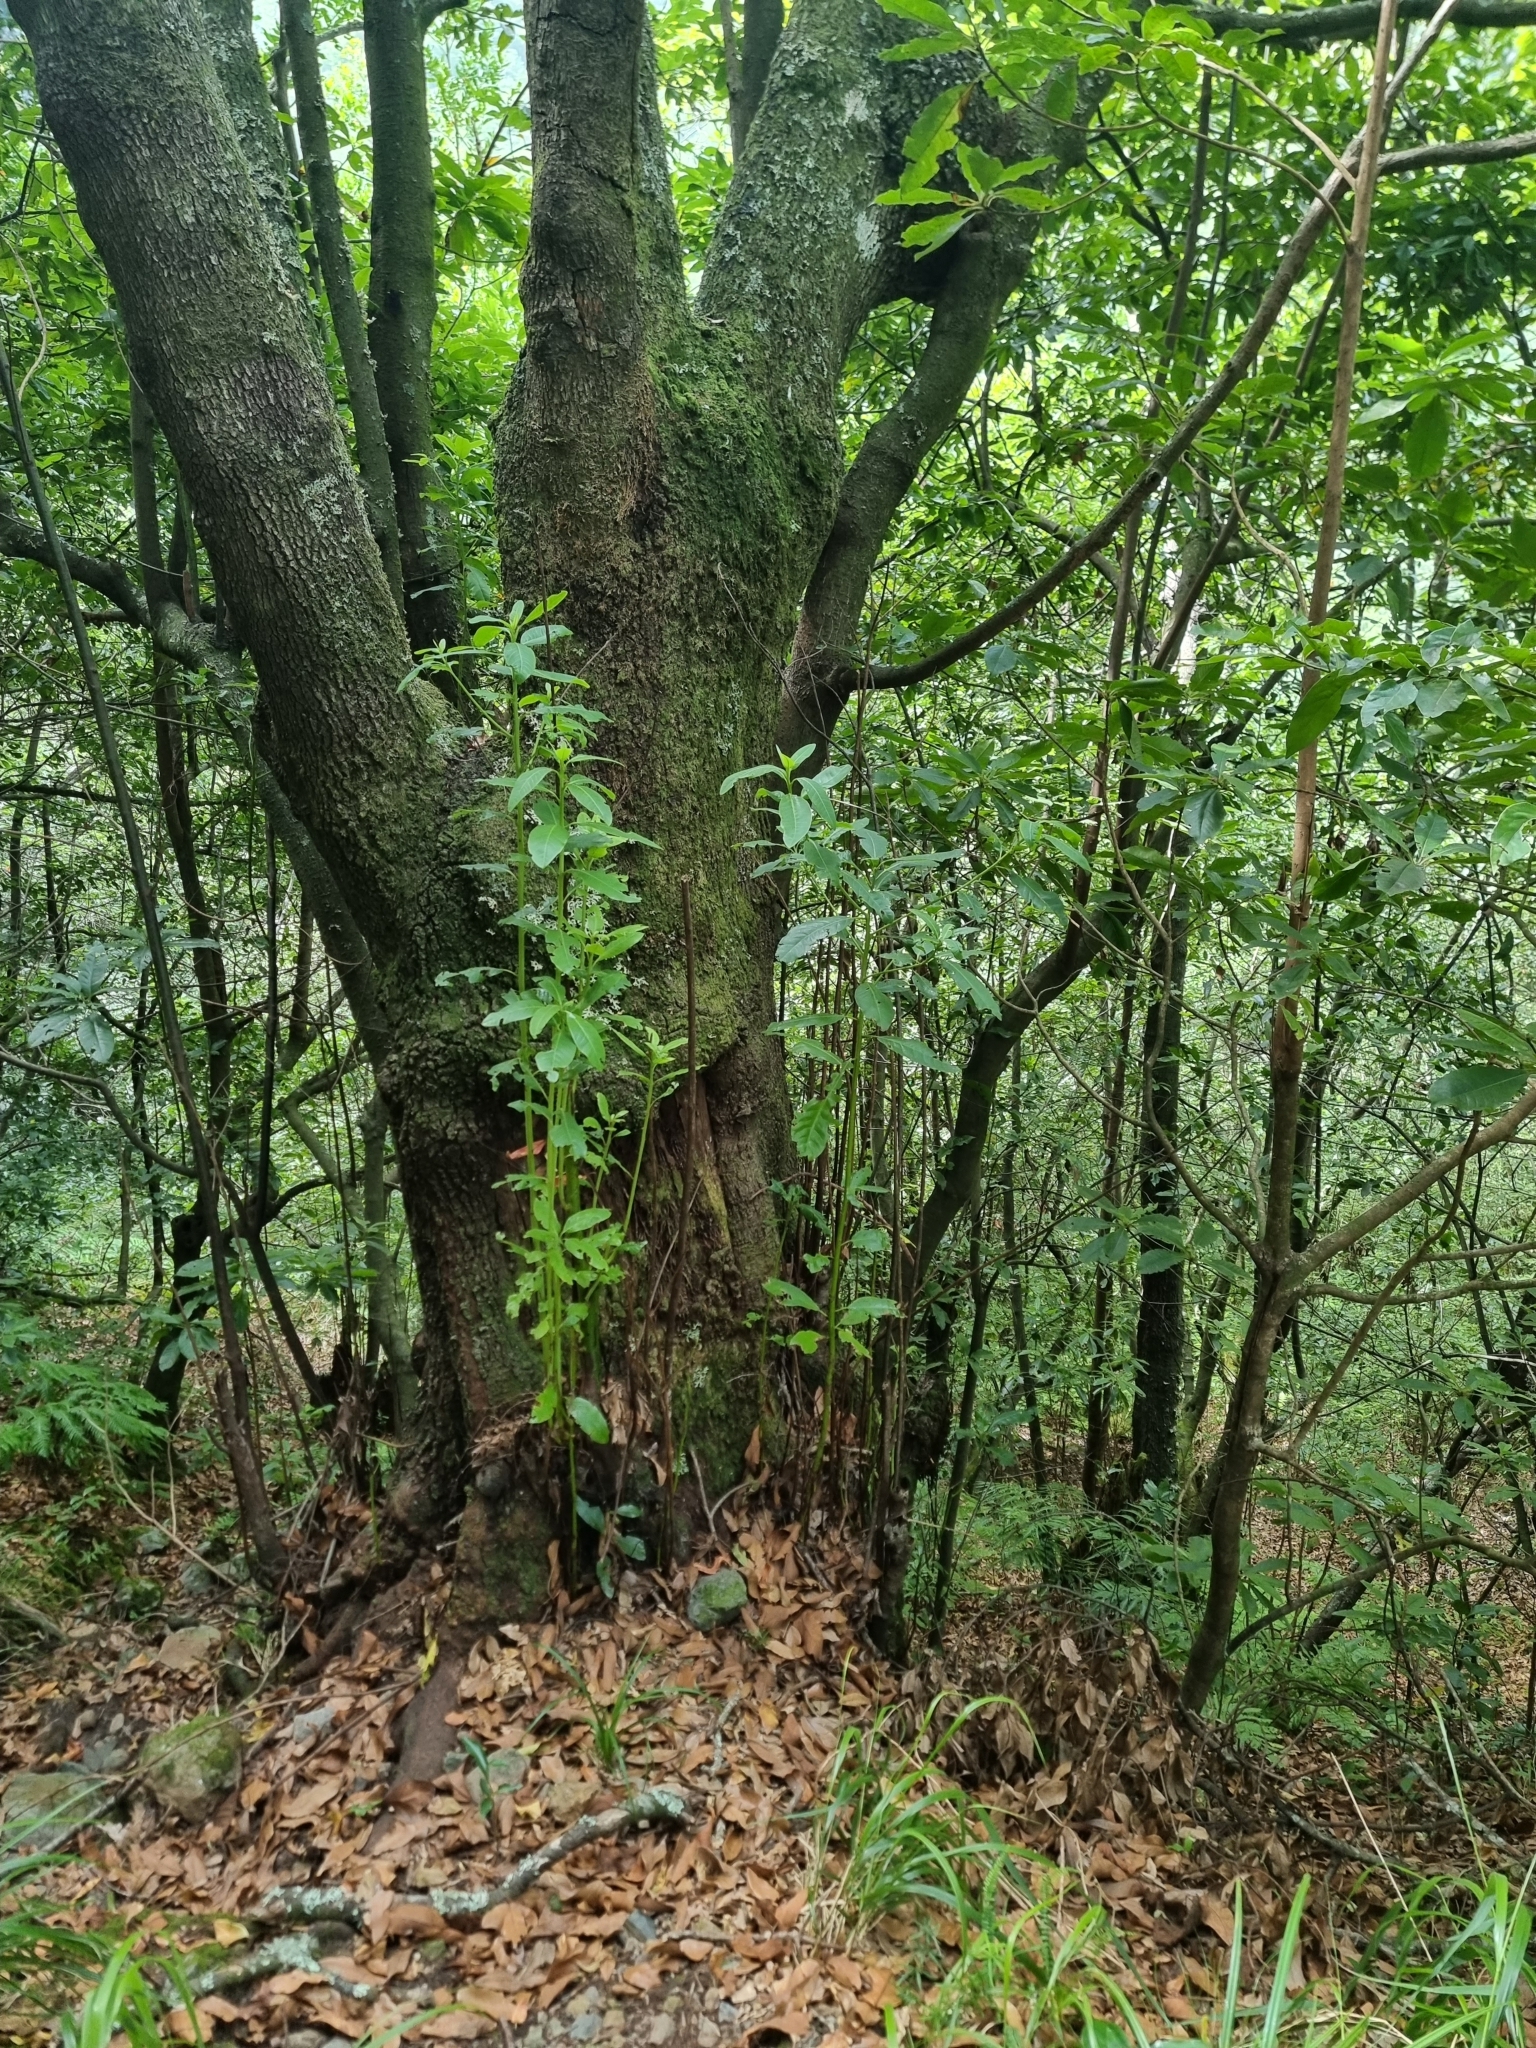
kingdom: Plantae
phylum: Tracheophyta
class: Magnoliopsida
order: Laurales
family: Lauraceae
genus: Persea
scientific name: Persea indica
